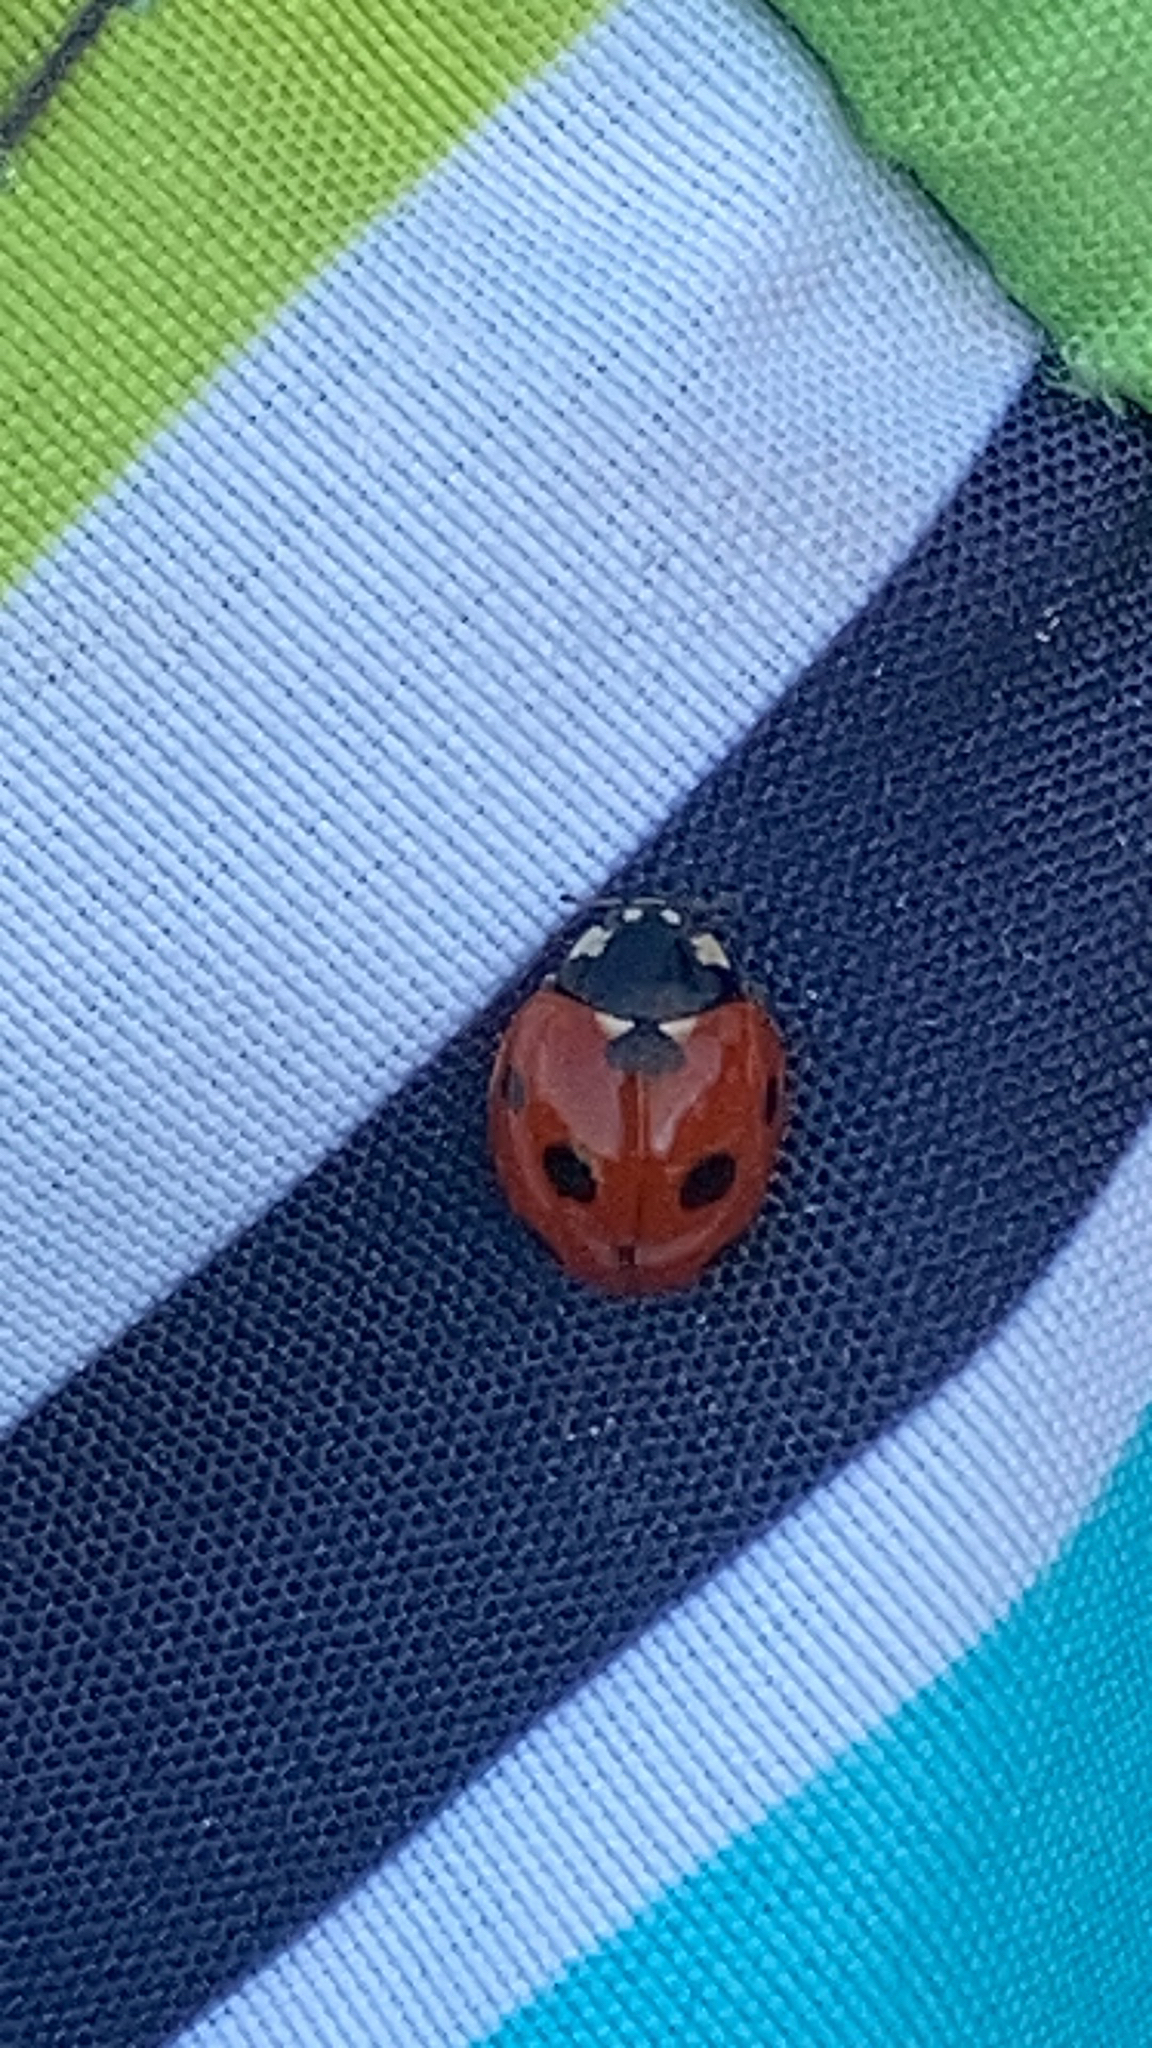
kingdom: Animalia
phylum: Arthropoda
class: Insecta
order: Coleoptera
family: Coccinellidae
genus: Coccinella
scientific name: Coccinella septempunctata
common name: Sevenspotted lady beetle
